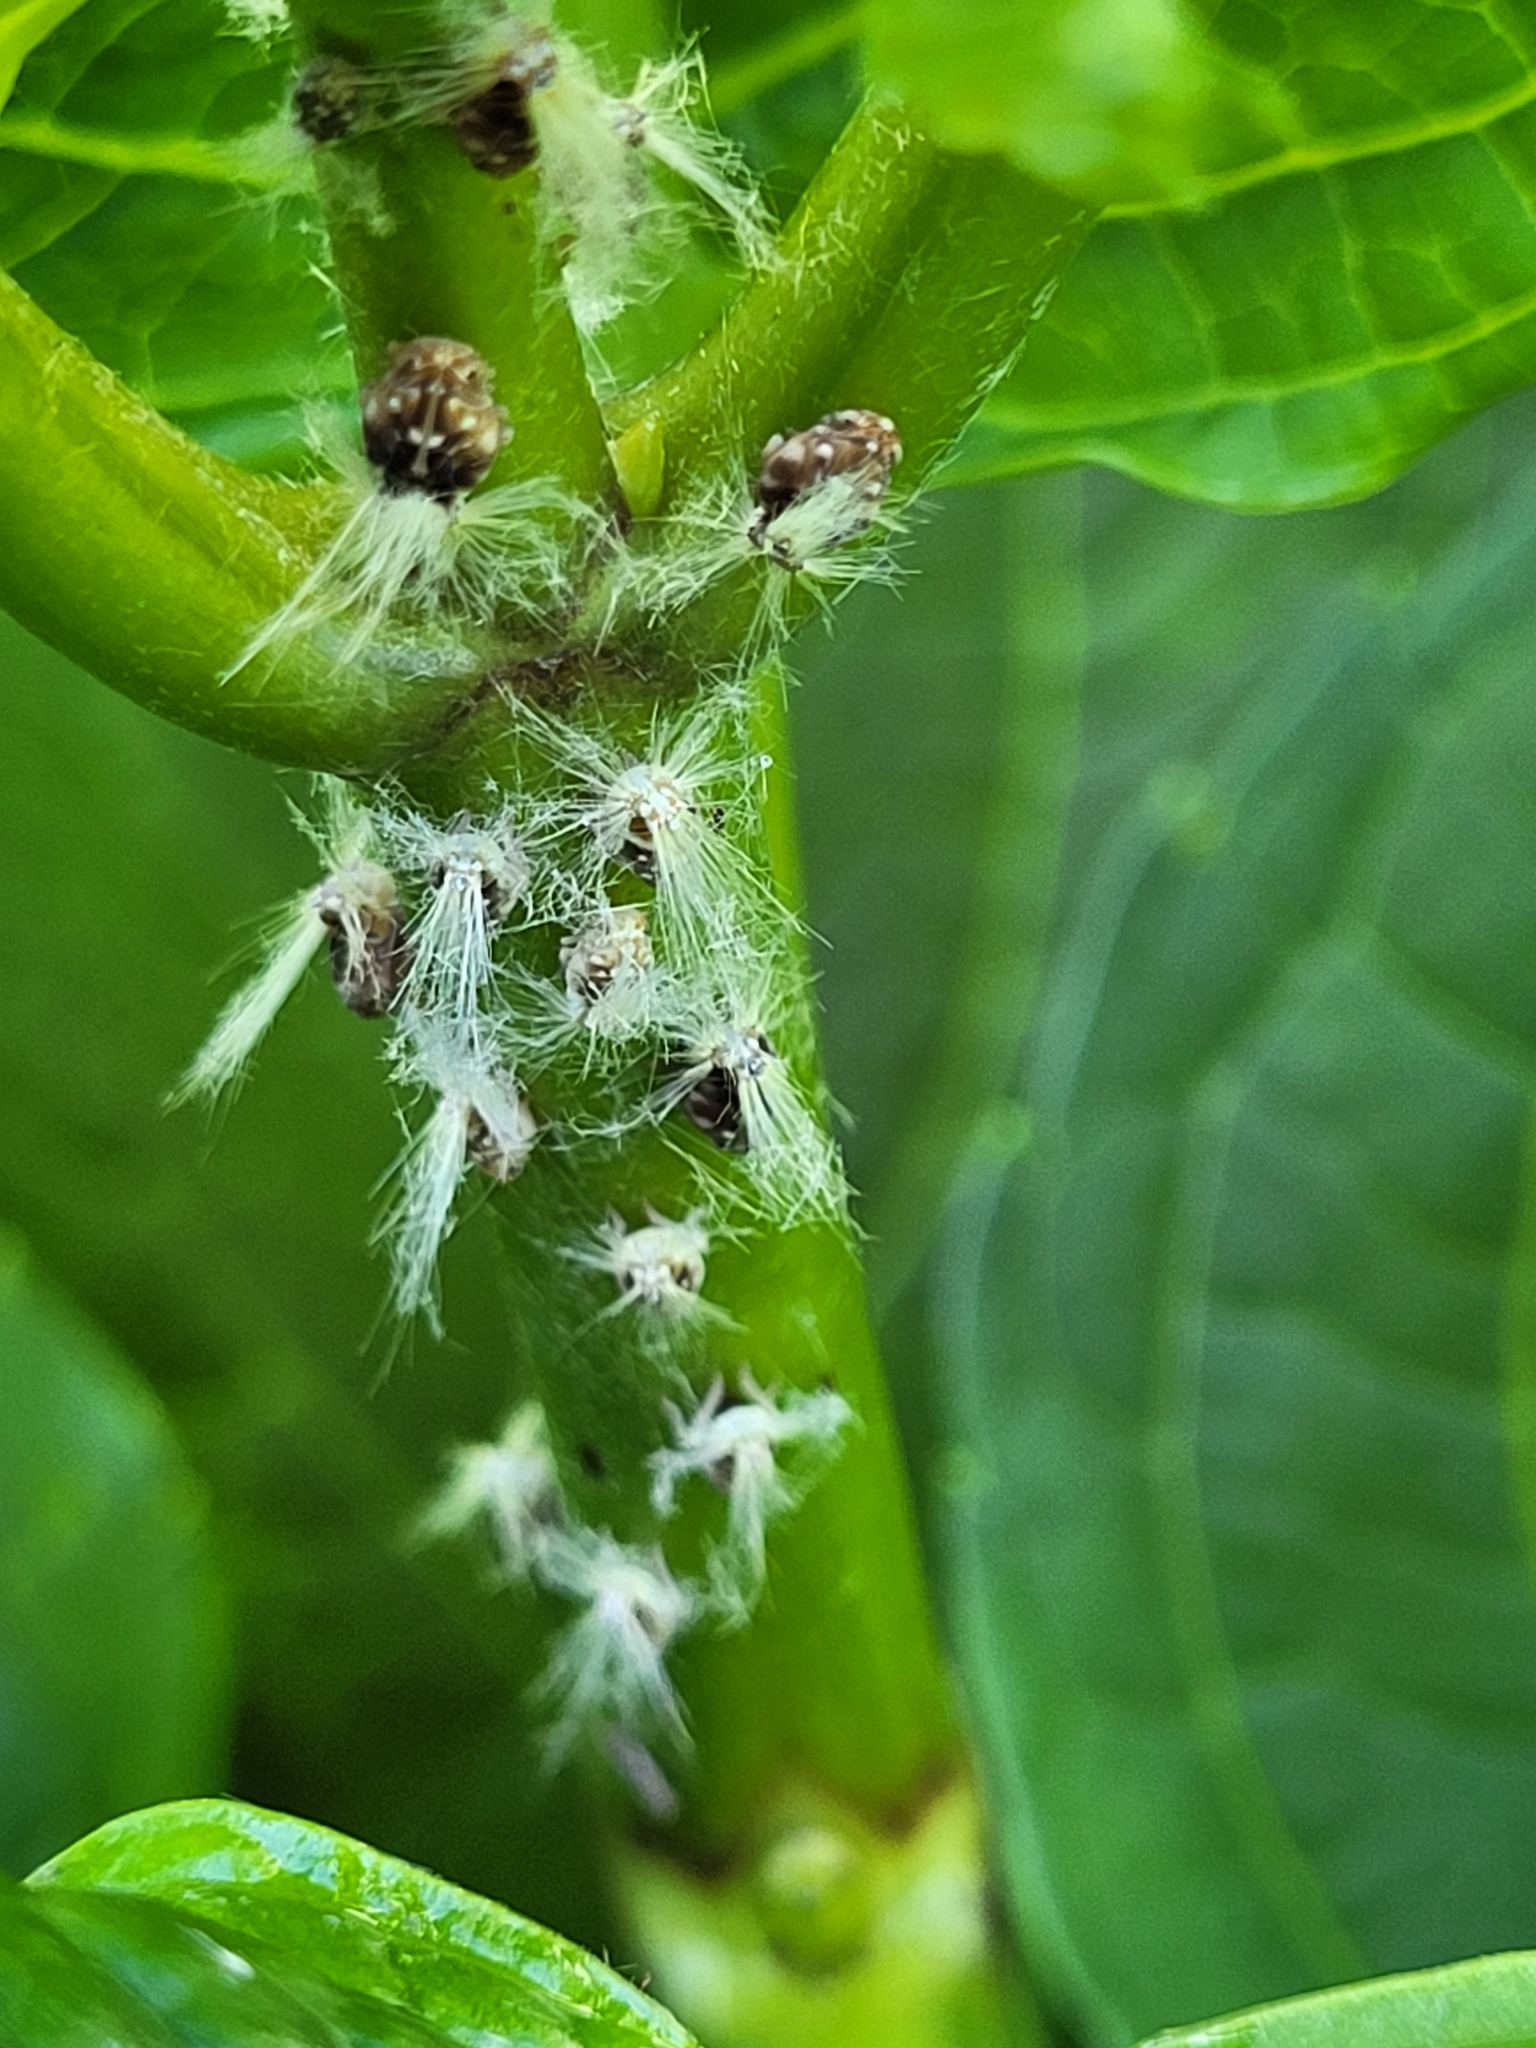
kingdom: Animalia
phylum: Arthropoda
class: Insecta
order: Hemiptera
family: Ricaniidae
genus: Scolypopa
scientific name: Scolypopa australis
